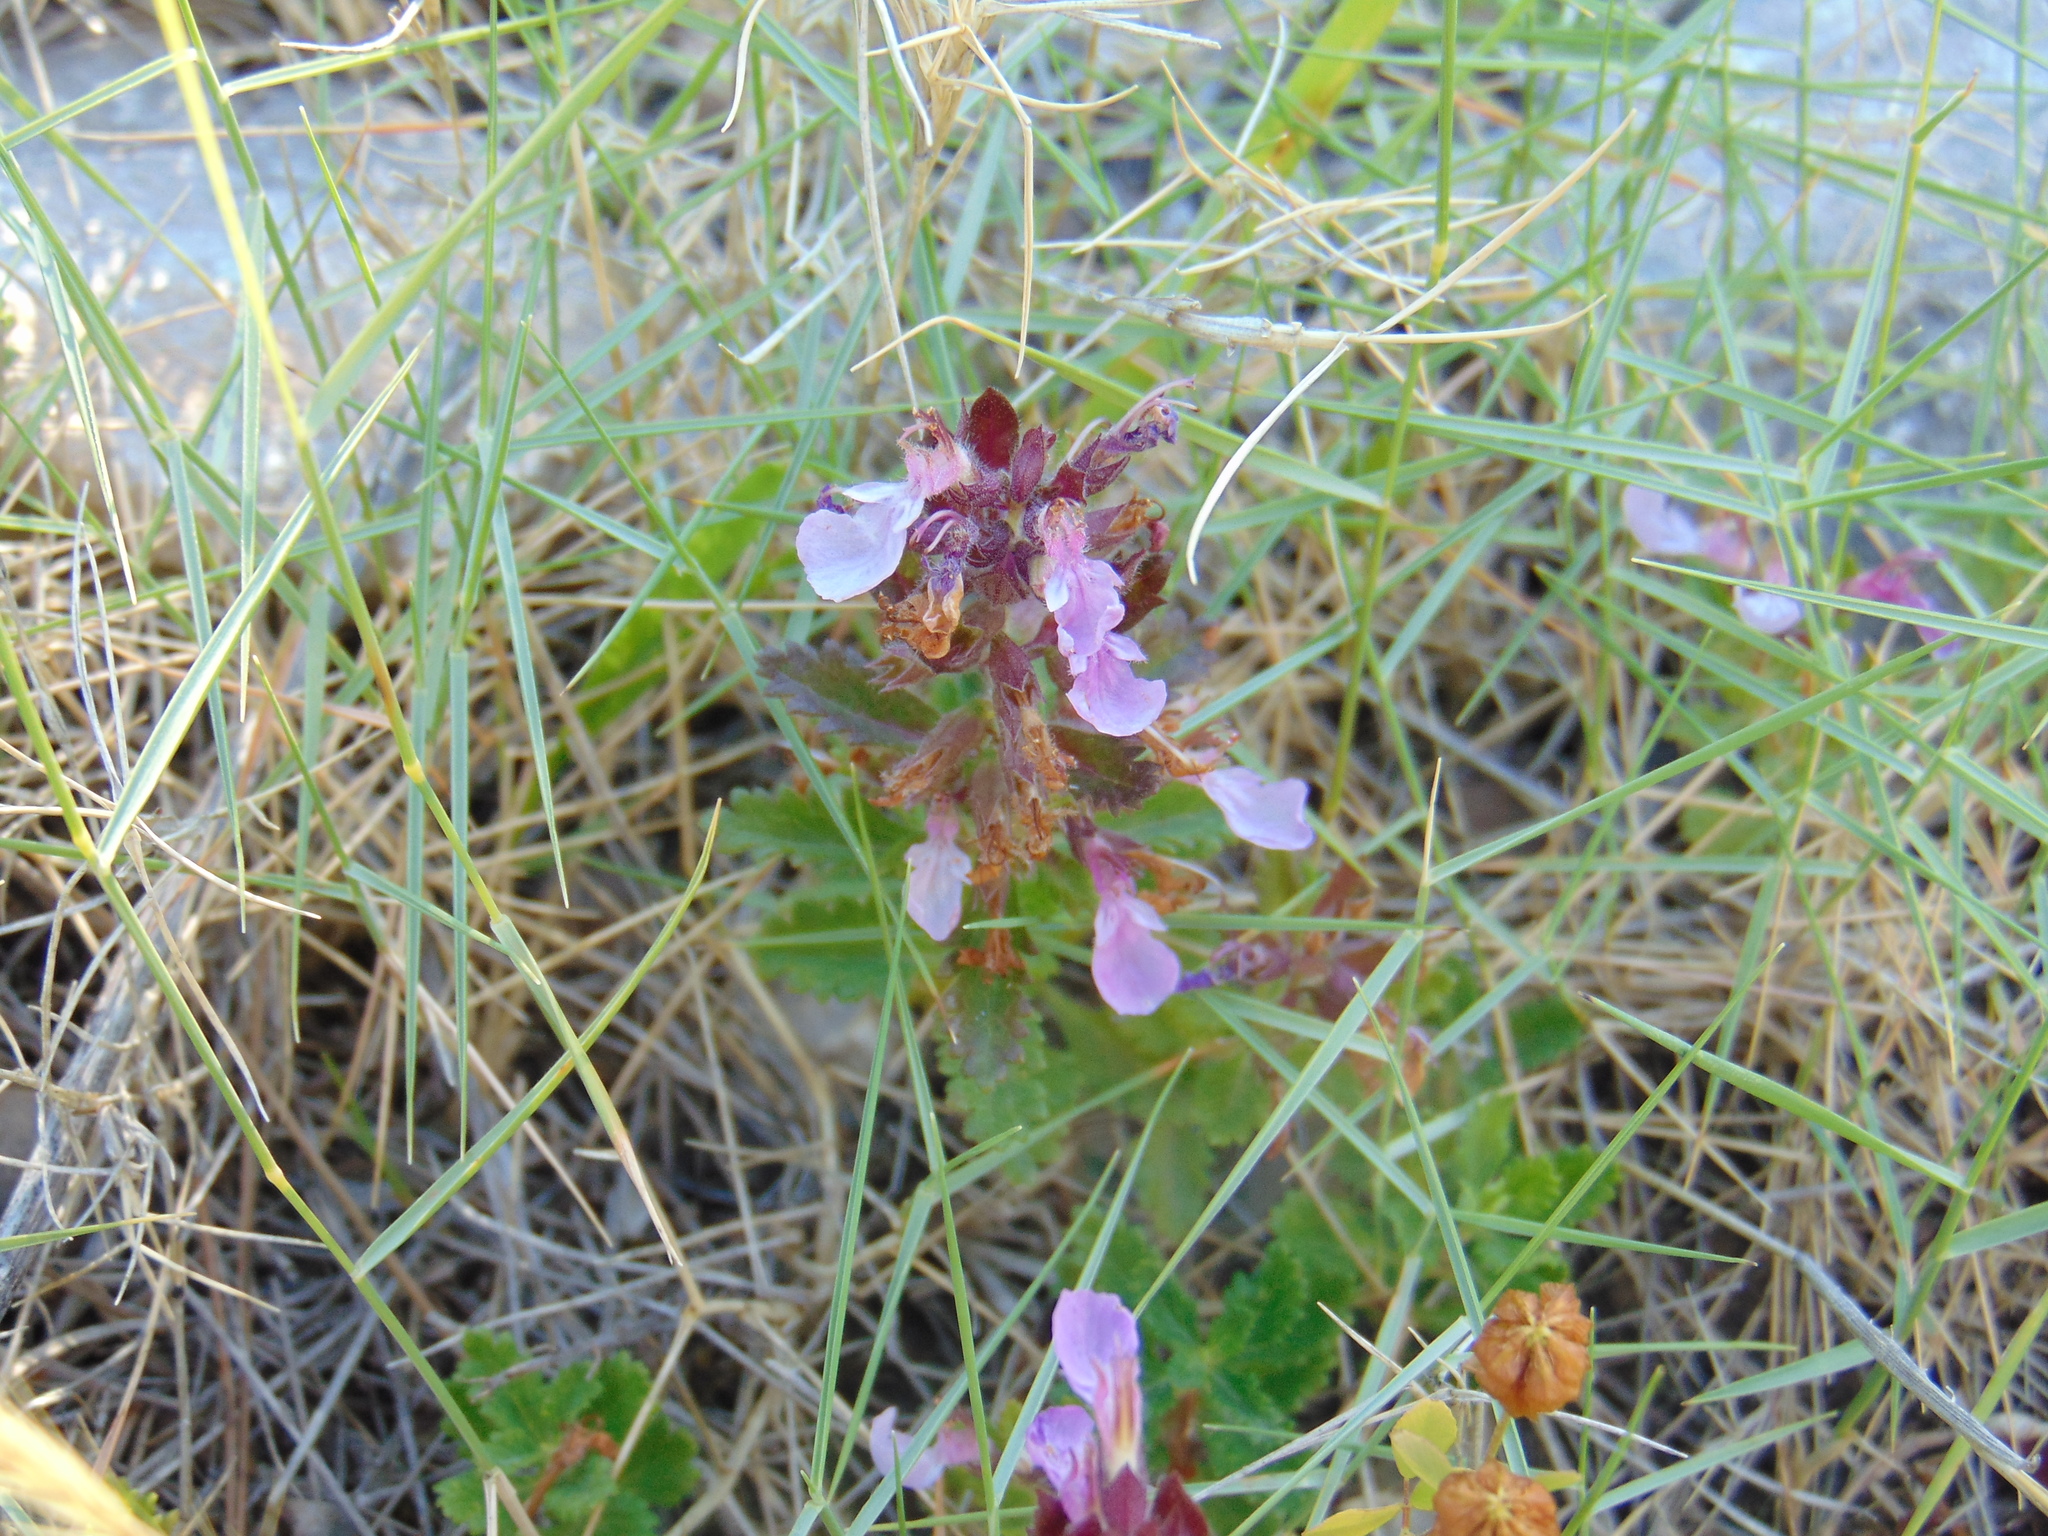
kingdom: Plantae
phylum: Tracheophyta
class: Magnoliopsida
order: Lamiales
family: Lamiaceae
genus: Teucrium
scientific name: Teucrium chamaedrys
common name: Wall germander
